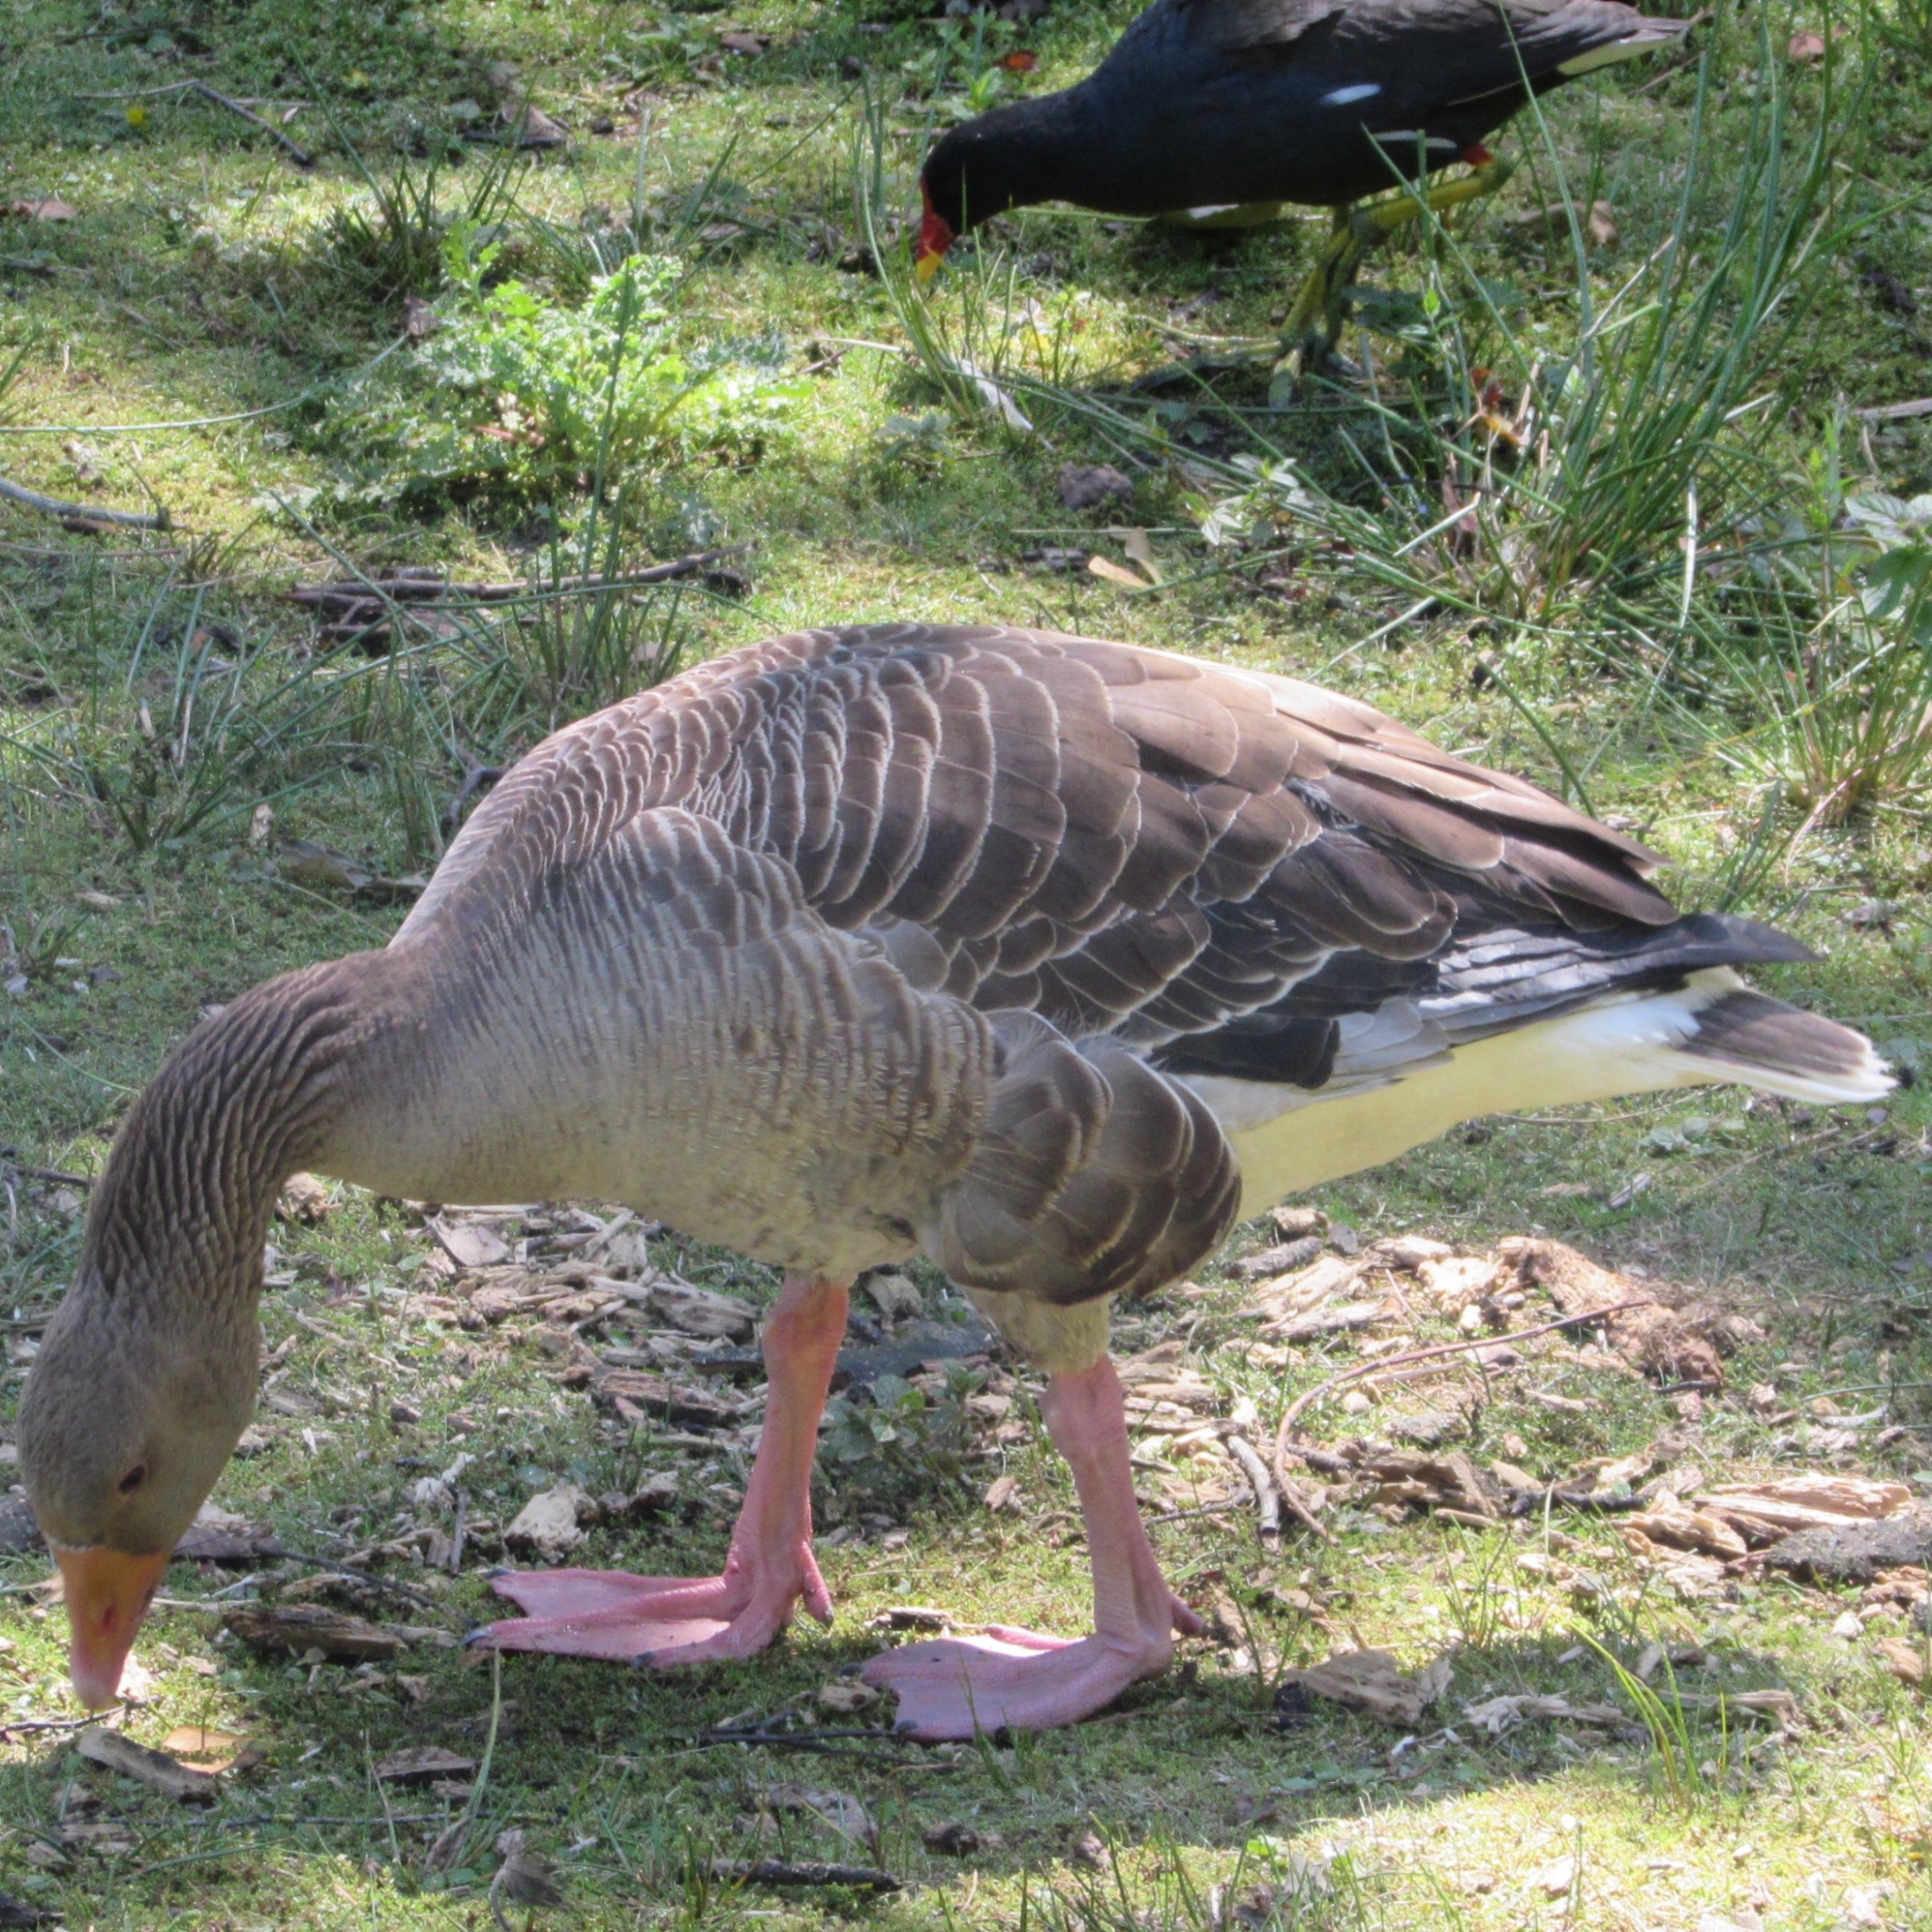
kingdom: Animalia
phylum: Chordata
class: Aves
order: Anseriformes
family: Anatidae
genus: Anser
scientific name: Anser anser
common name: Greylag goose
